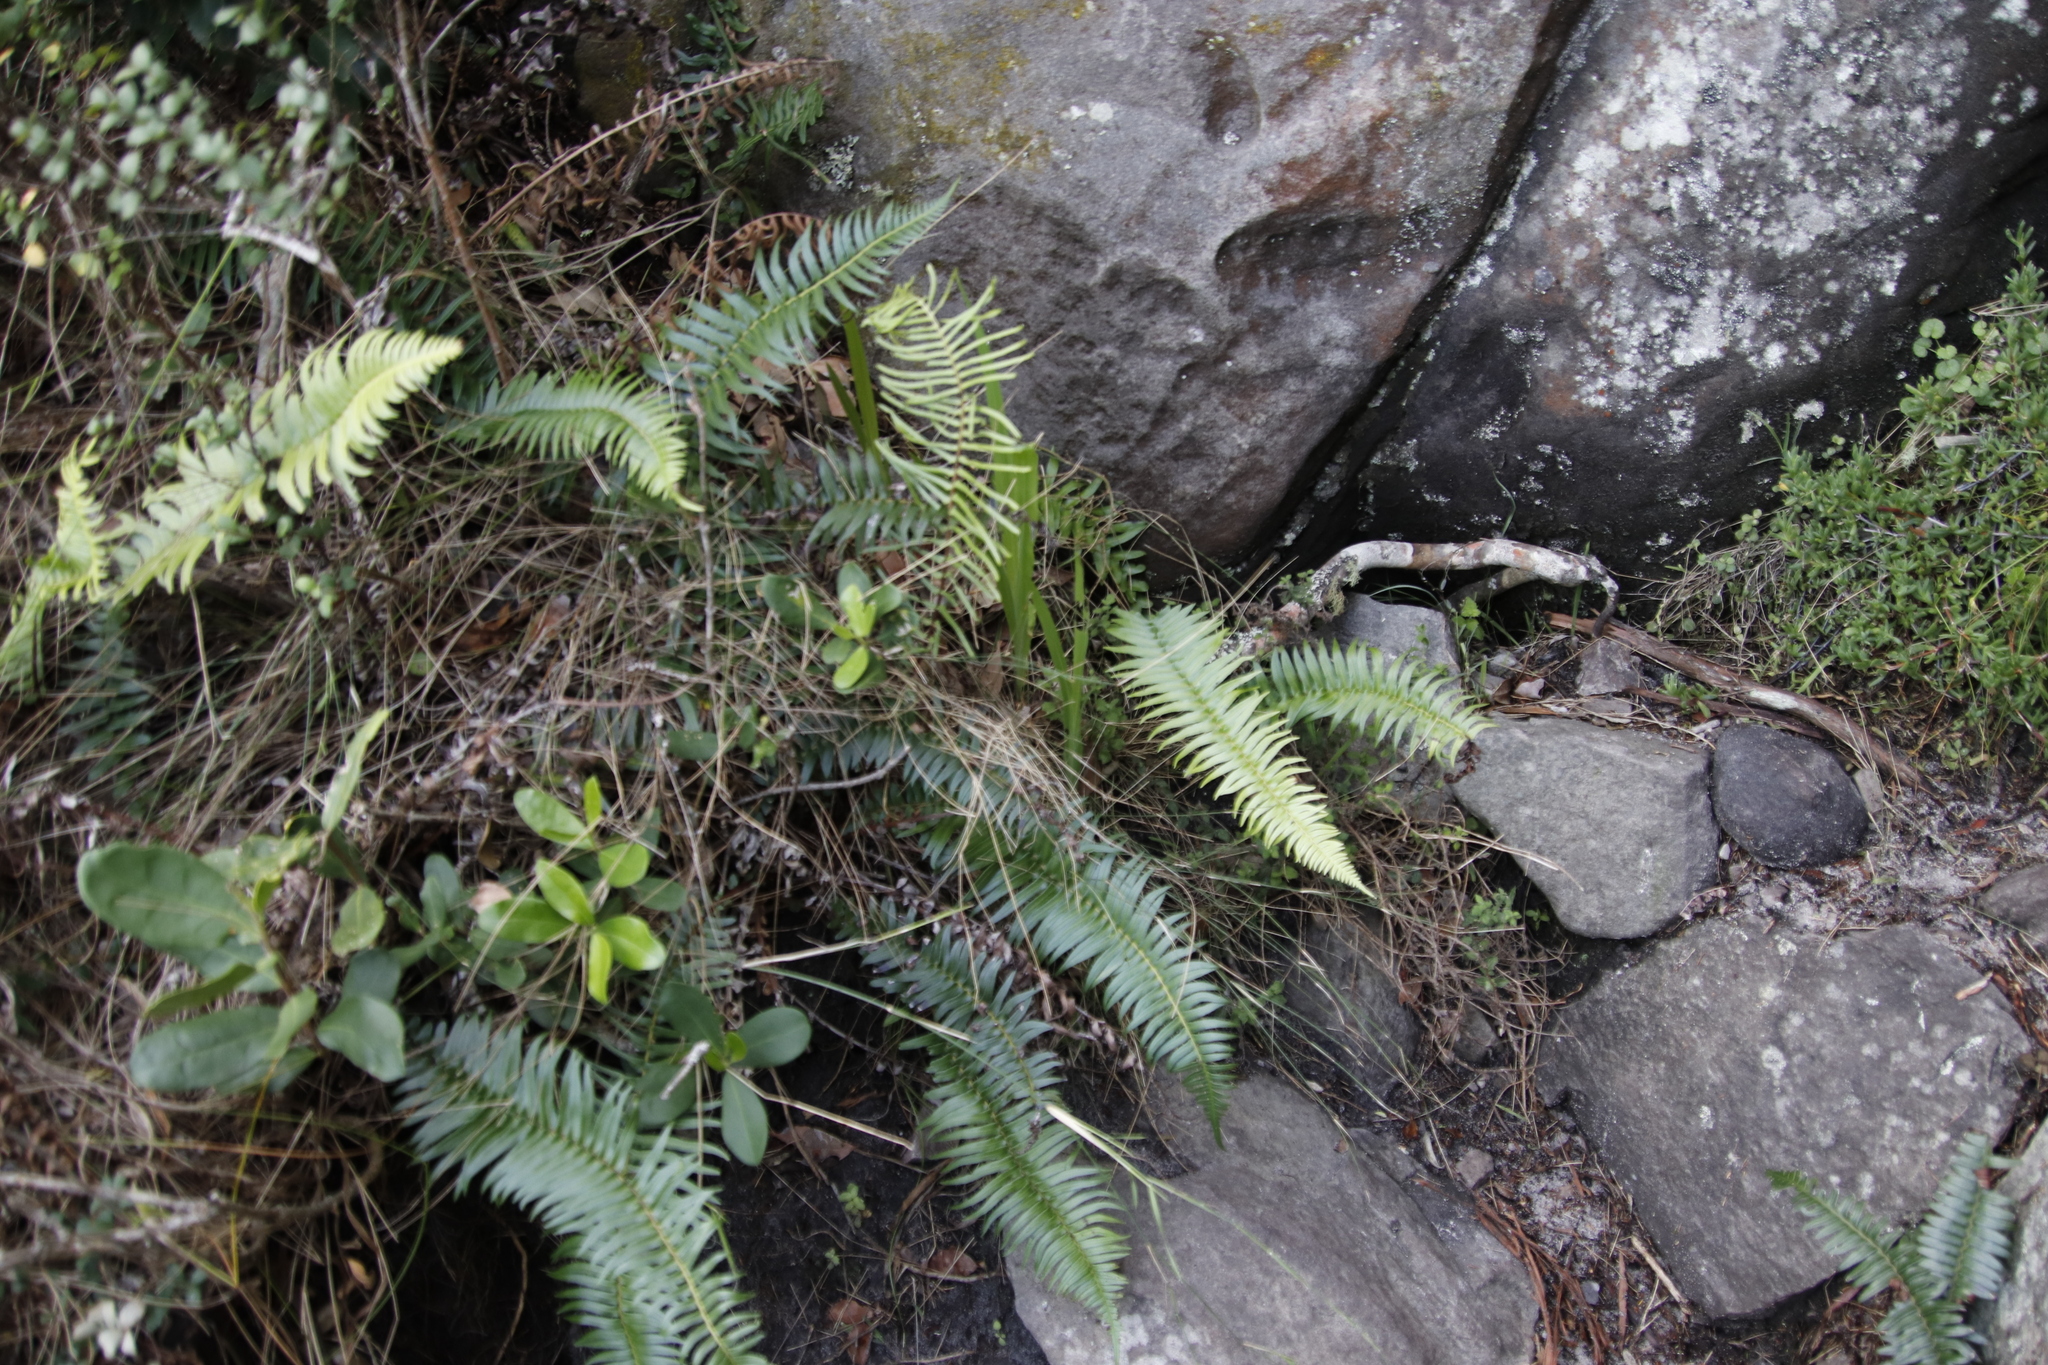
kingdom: Plantae
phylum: Tracheophyta
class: Polypodiopsida
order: Polypodiales
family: Blechnaceae
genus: Blechnum
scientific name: Blechnum punctulatum
